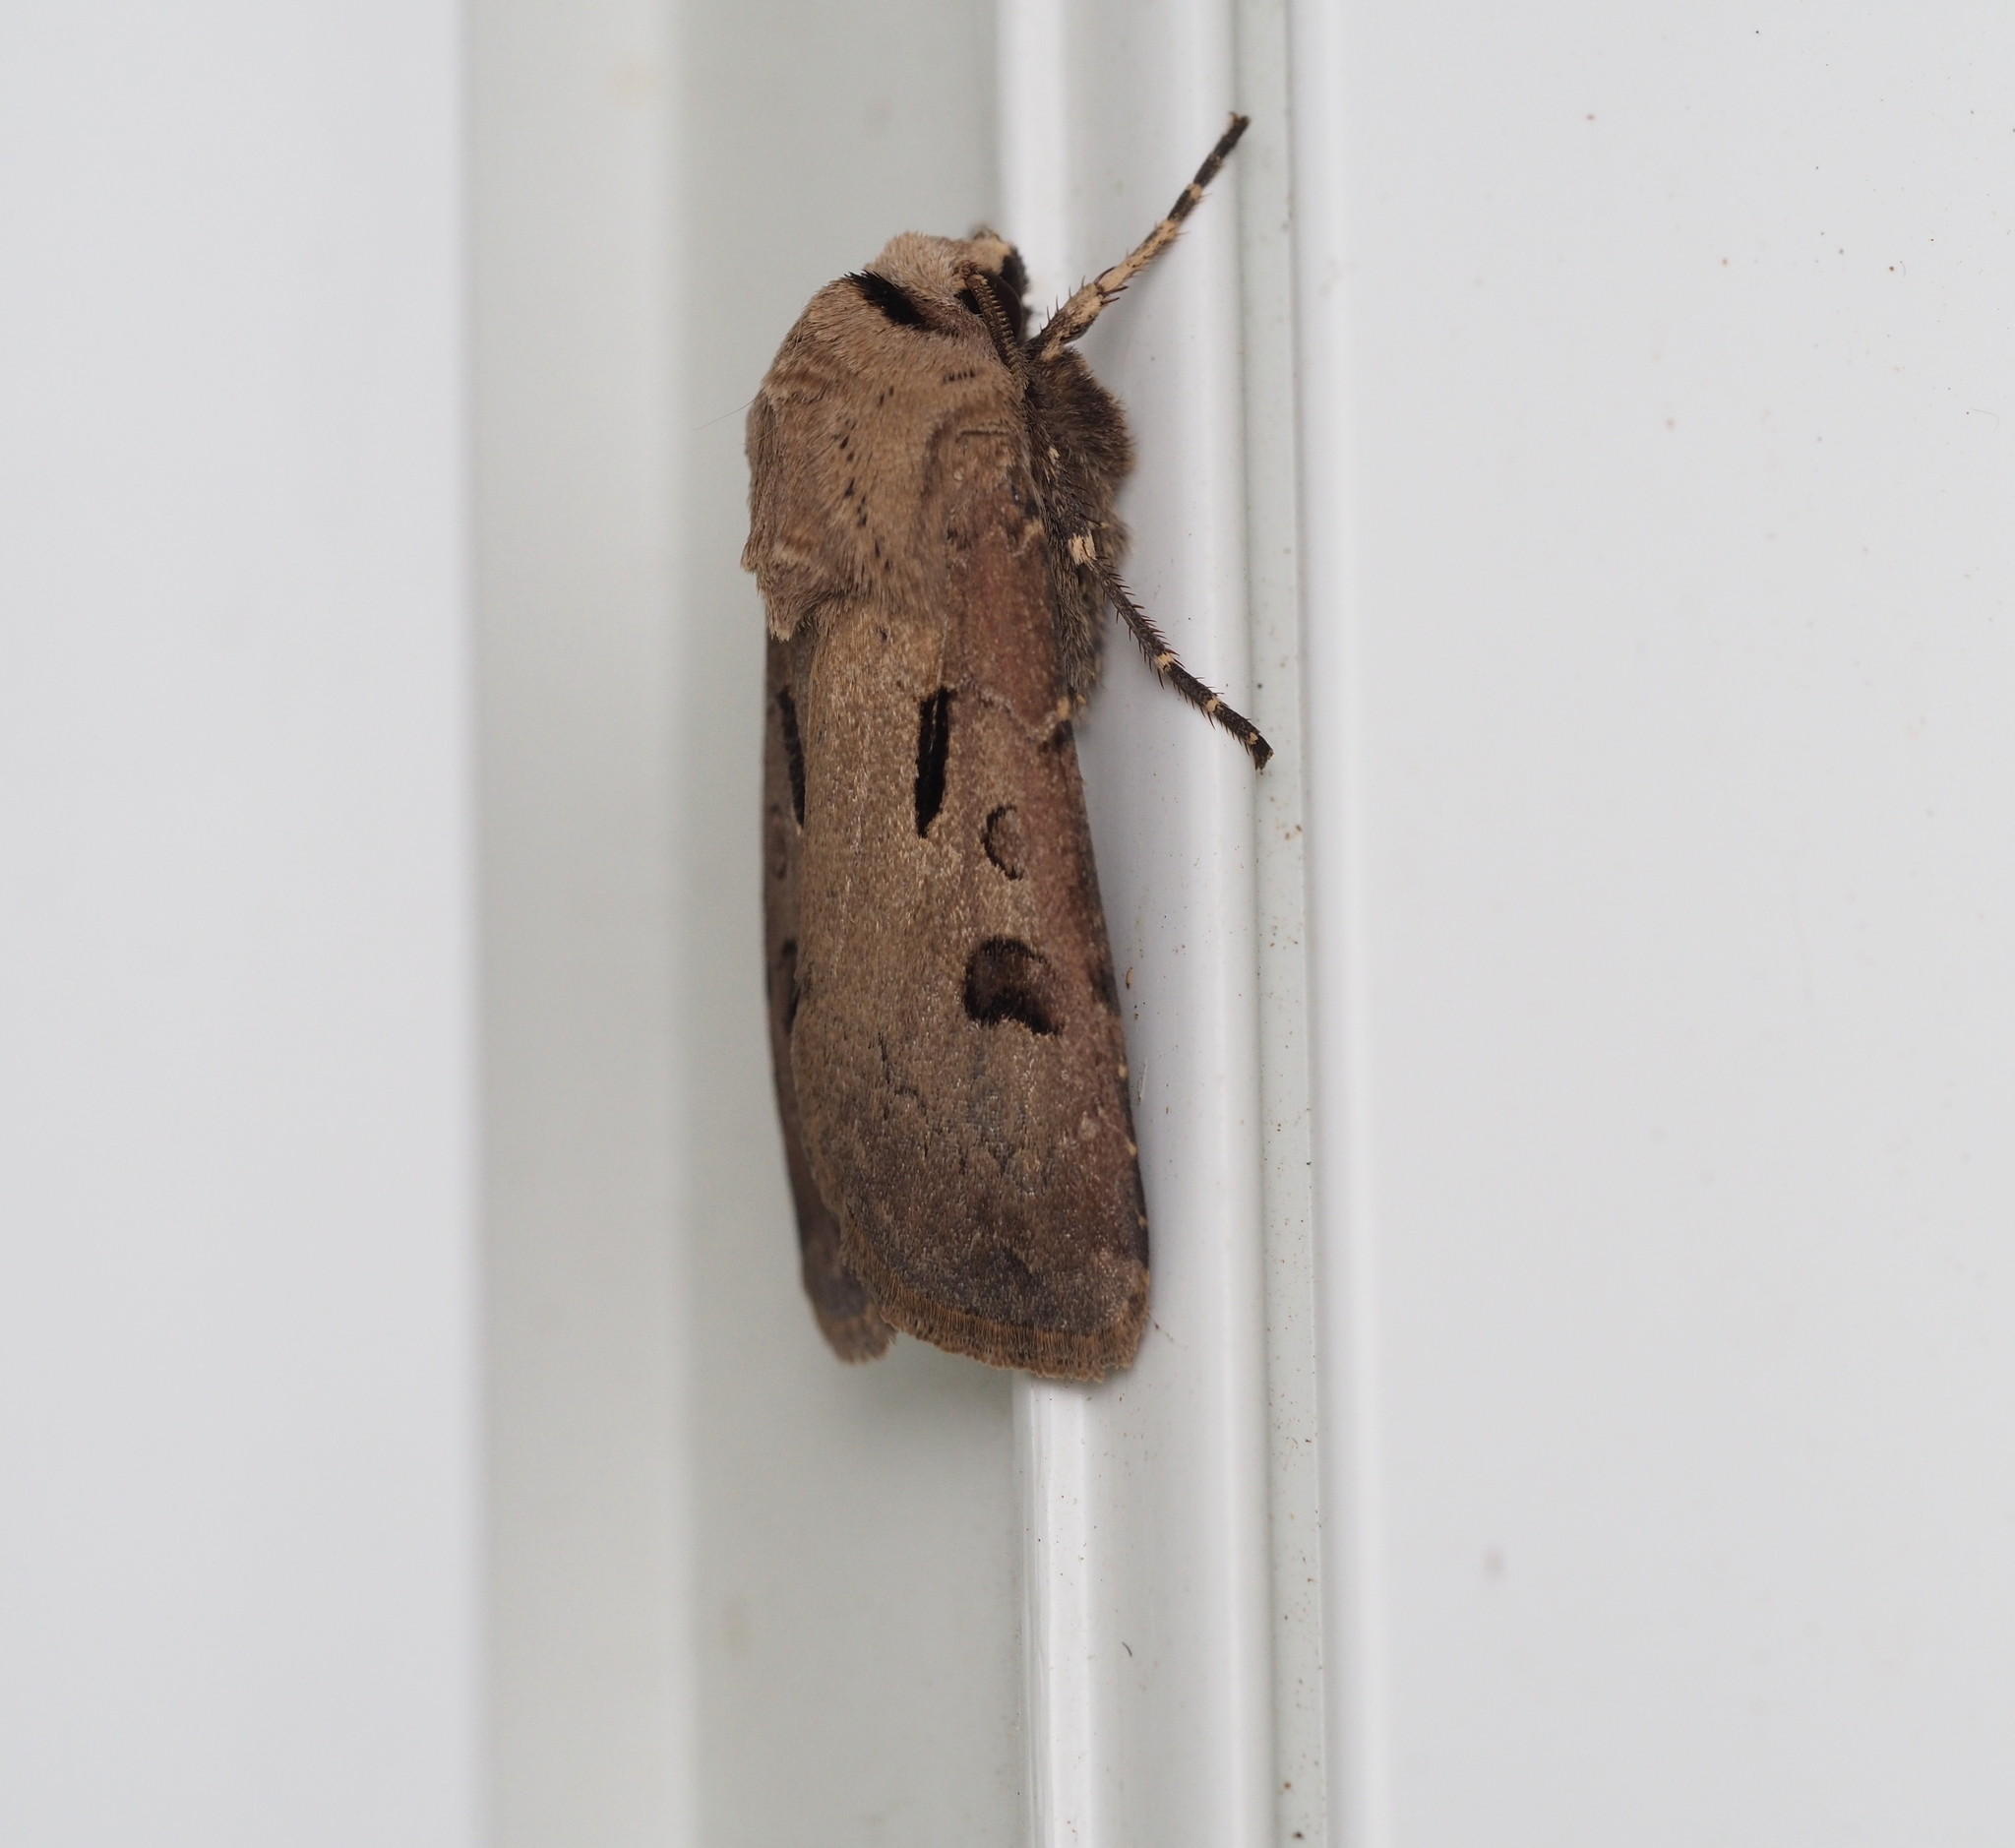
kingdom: Animalia
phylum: Arthropoda
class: Insecta
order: Lepidoptera
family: Noctuidae
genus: Agrotis
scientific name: Agrotis exclamationis
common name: Heart and dart
